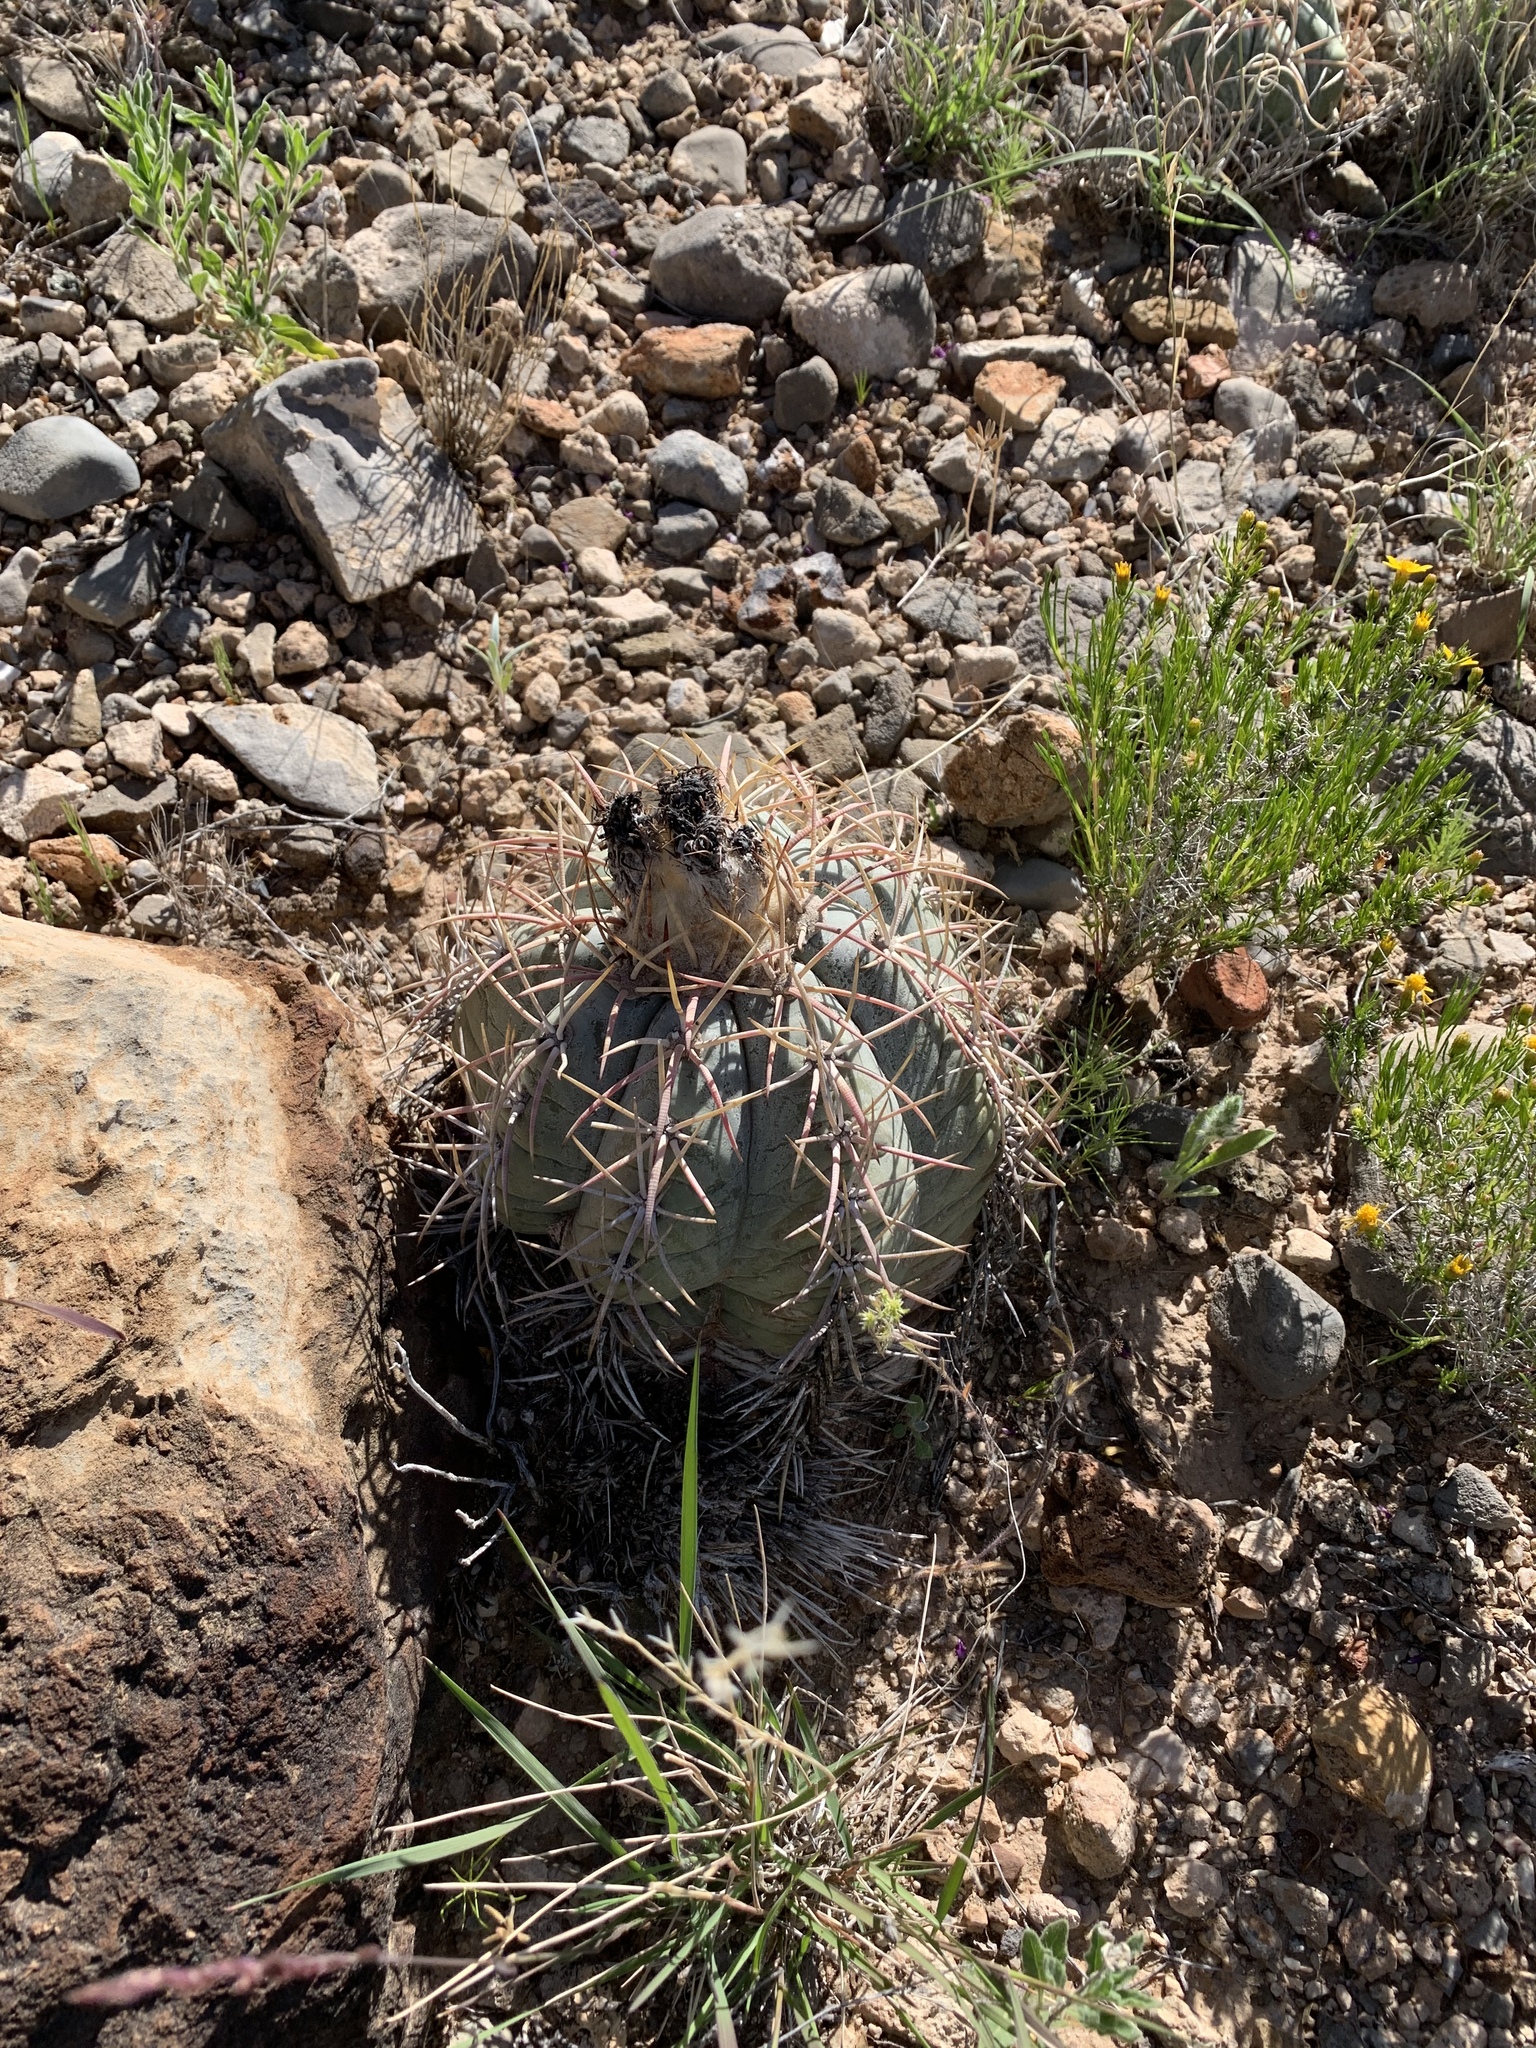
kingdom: Plantae
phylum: Tracheophyta
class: Magnoliopsida
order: Caryophyllales
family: Cactaceae
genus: Echinocactus
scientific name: Echinocactus horizonthalonius
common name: Devilshead
